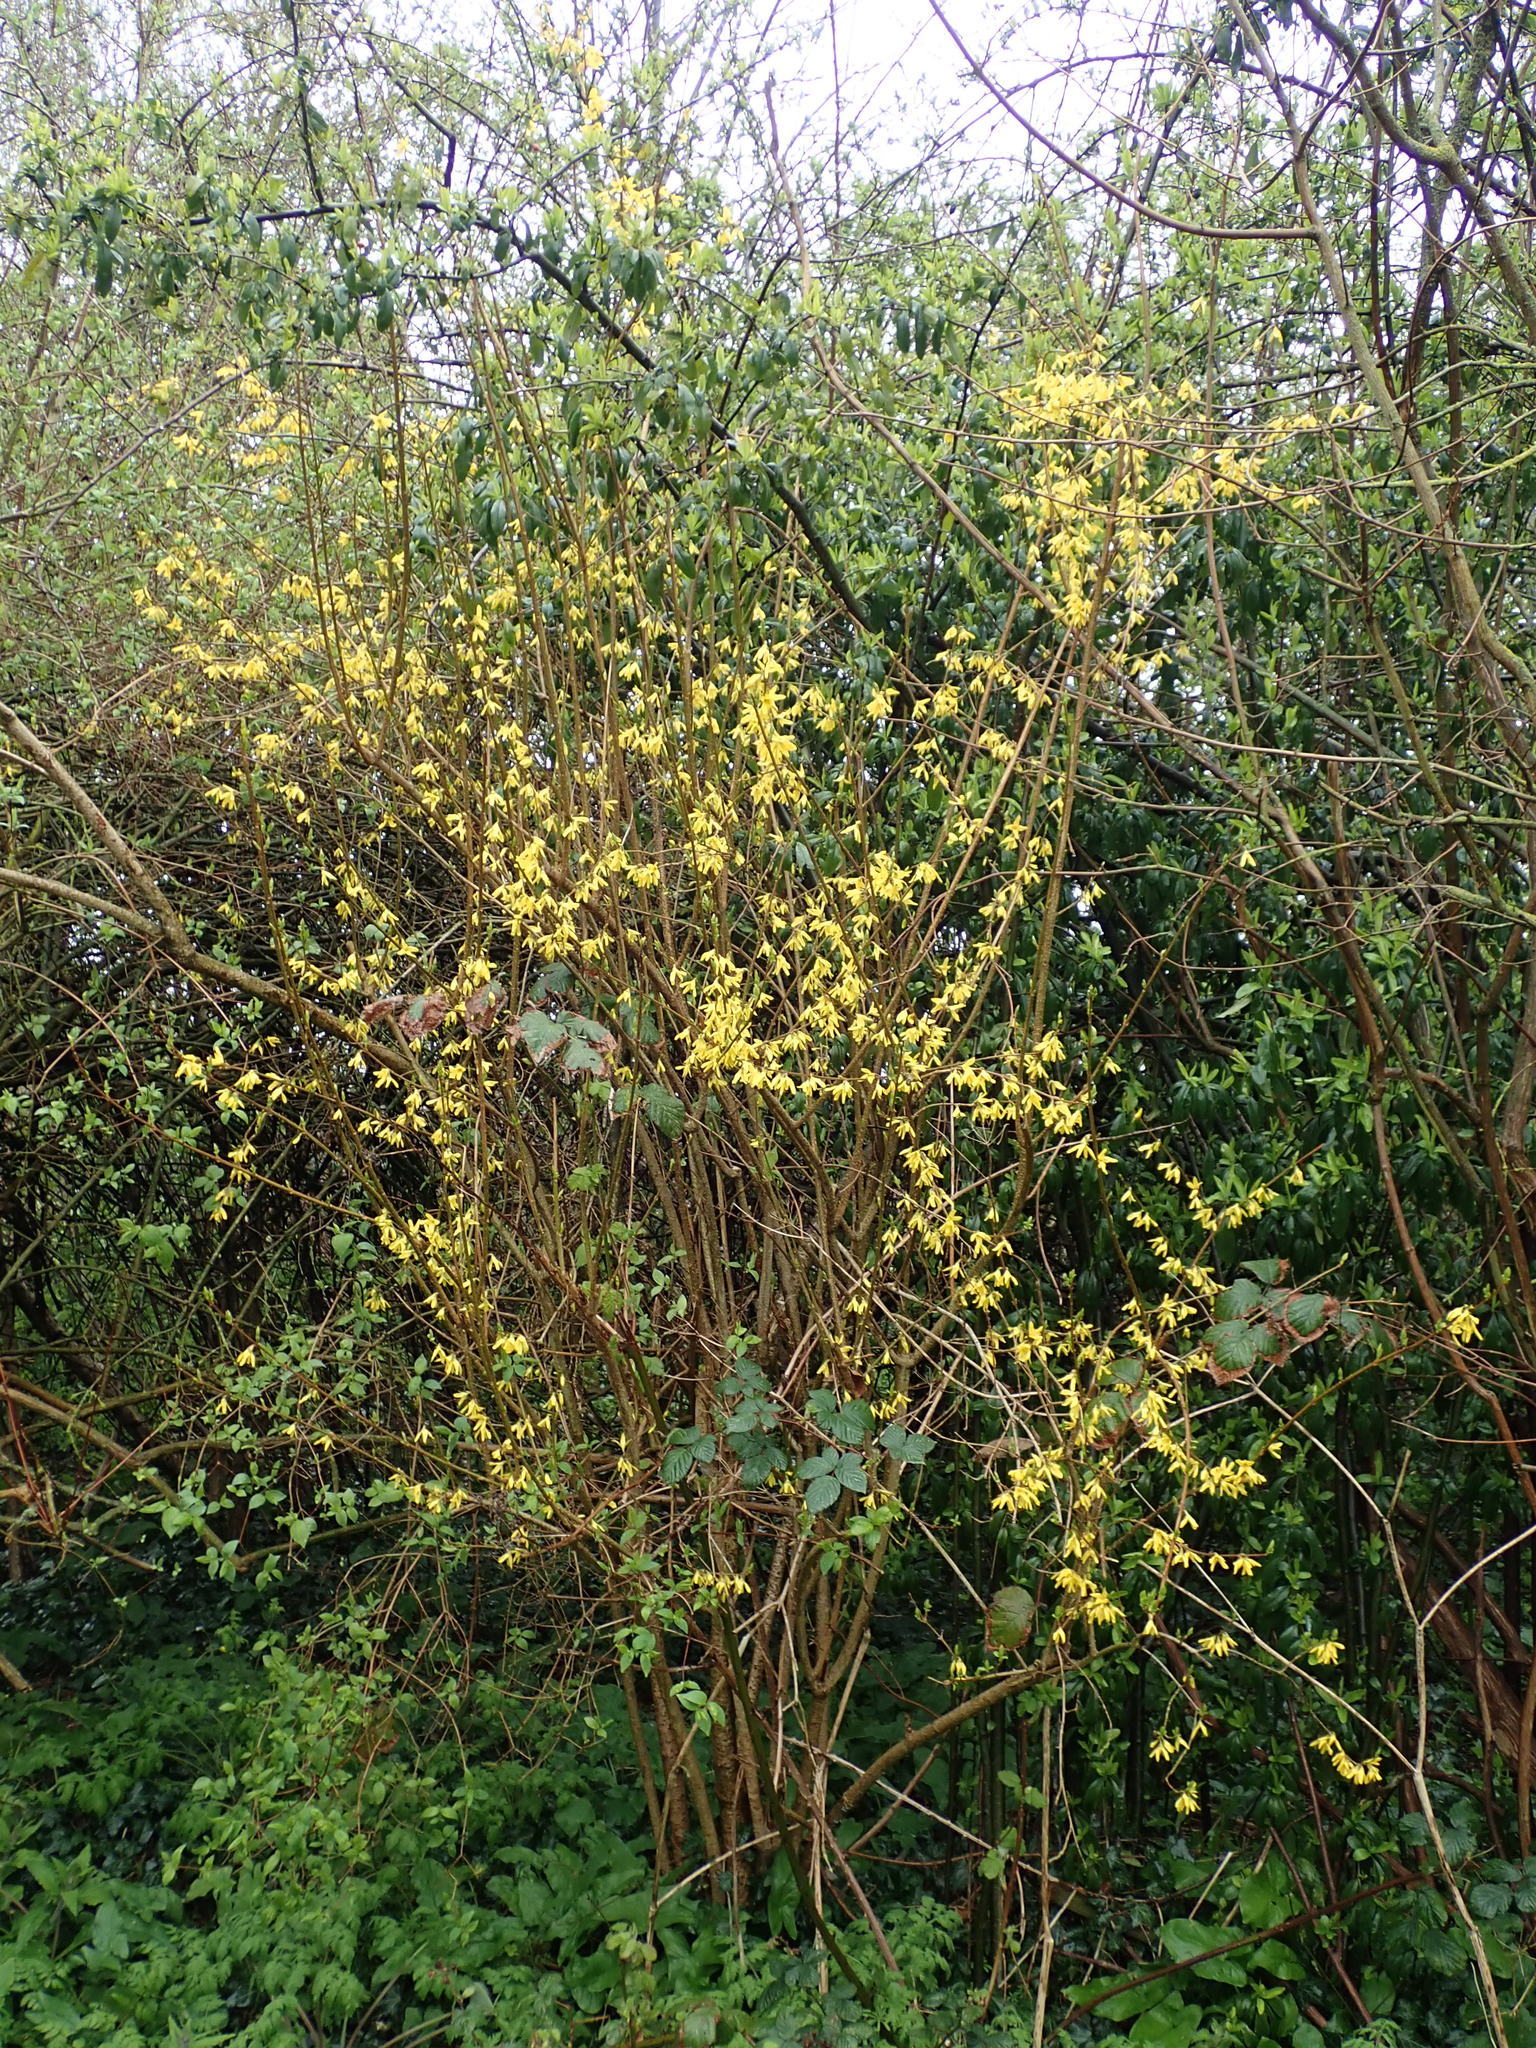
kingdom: Plantae
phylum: Tracheophyta
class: Magnoliopsida
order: Lamiales
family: Oleaceae
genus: Forsythia
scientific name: Forsythia intermedia
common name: Forsythia
